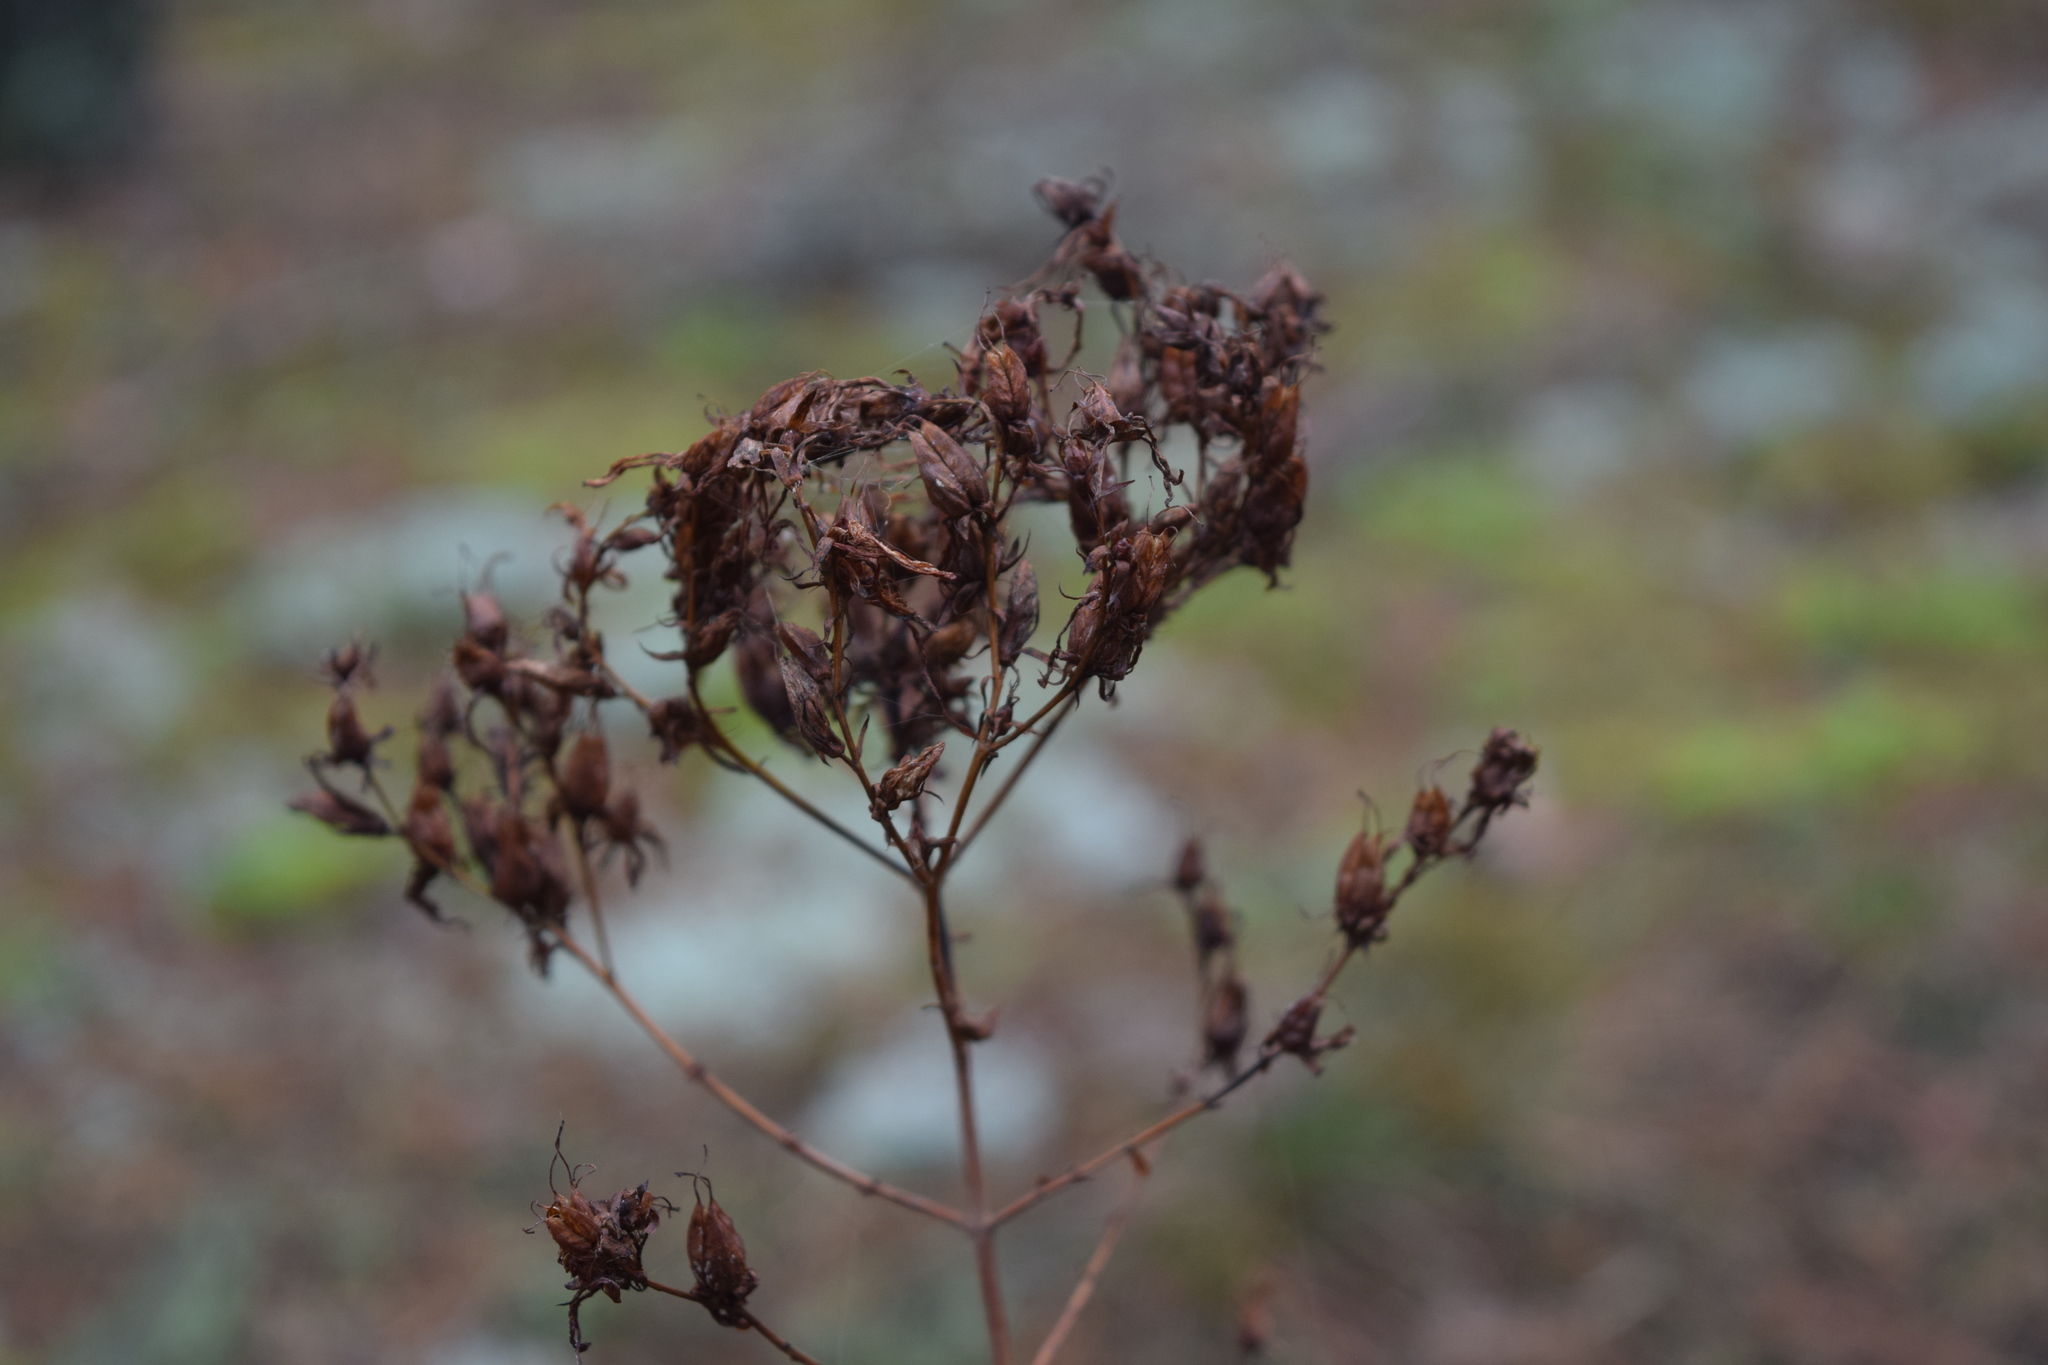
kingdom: Plantae
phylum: Tracheophyta
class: Magnoliopsida
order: Malpighiales
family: Hypericaceae
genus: Hypericum
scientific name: Hypericum perforatum
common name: Common st. johnswort
